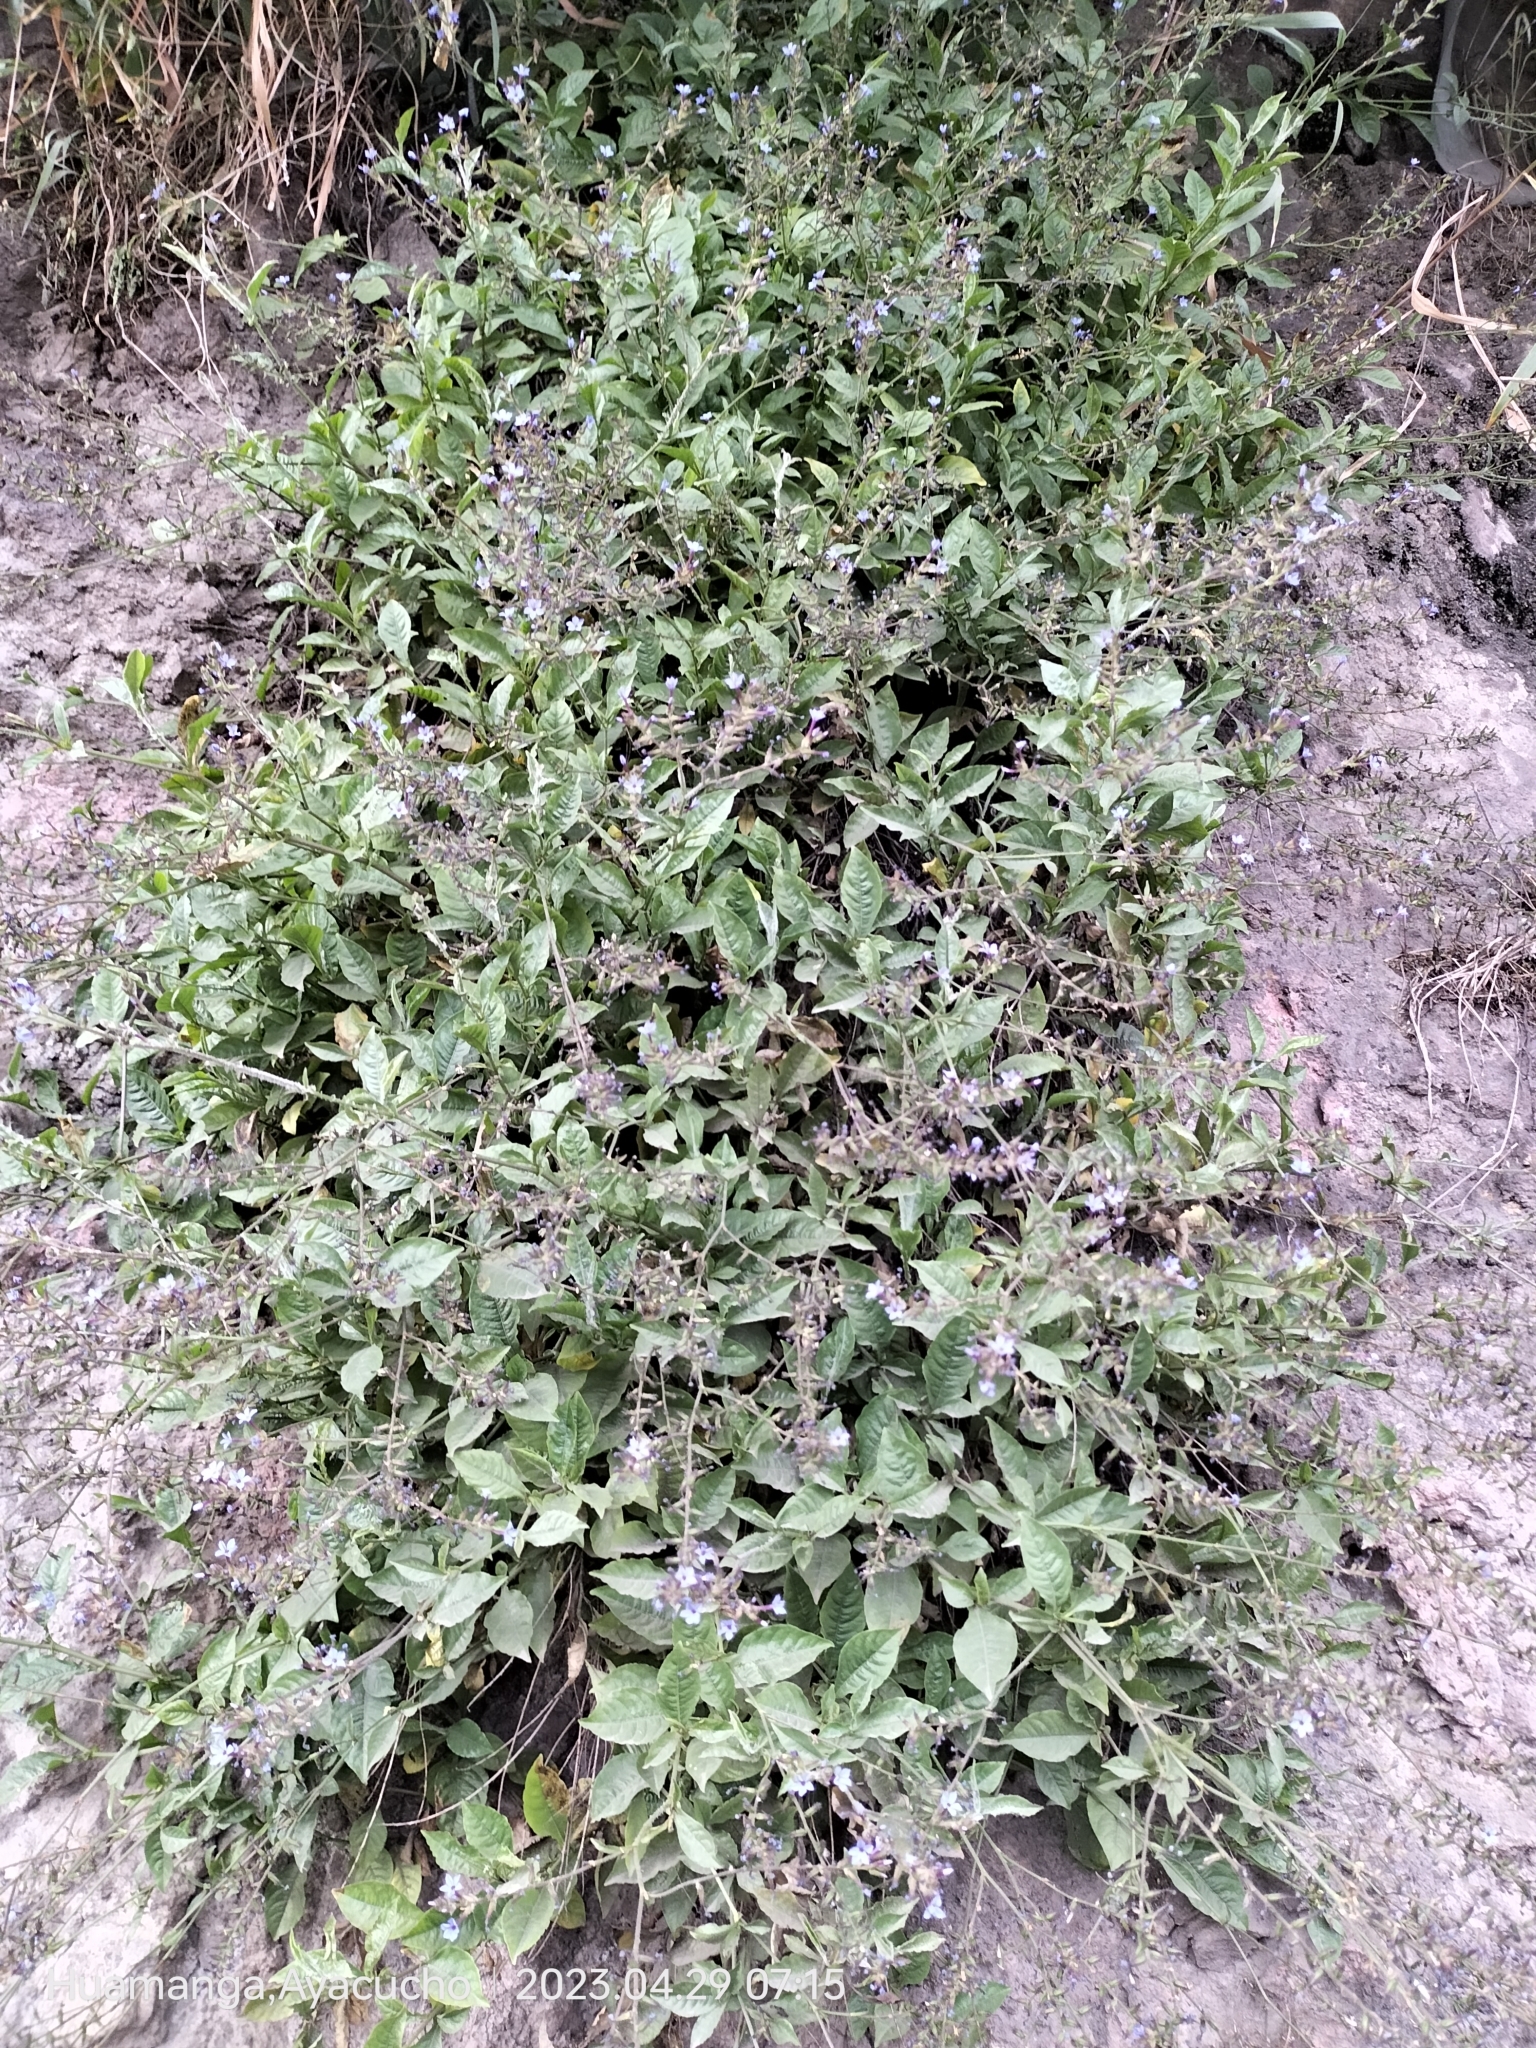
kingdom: Plantae
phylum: Tracheophyta
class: Magnoliopsida
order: Caryophyllales
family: Plumbaginaceae
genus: Plumbago
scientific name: Plumbago caerulea
